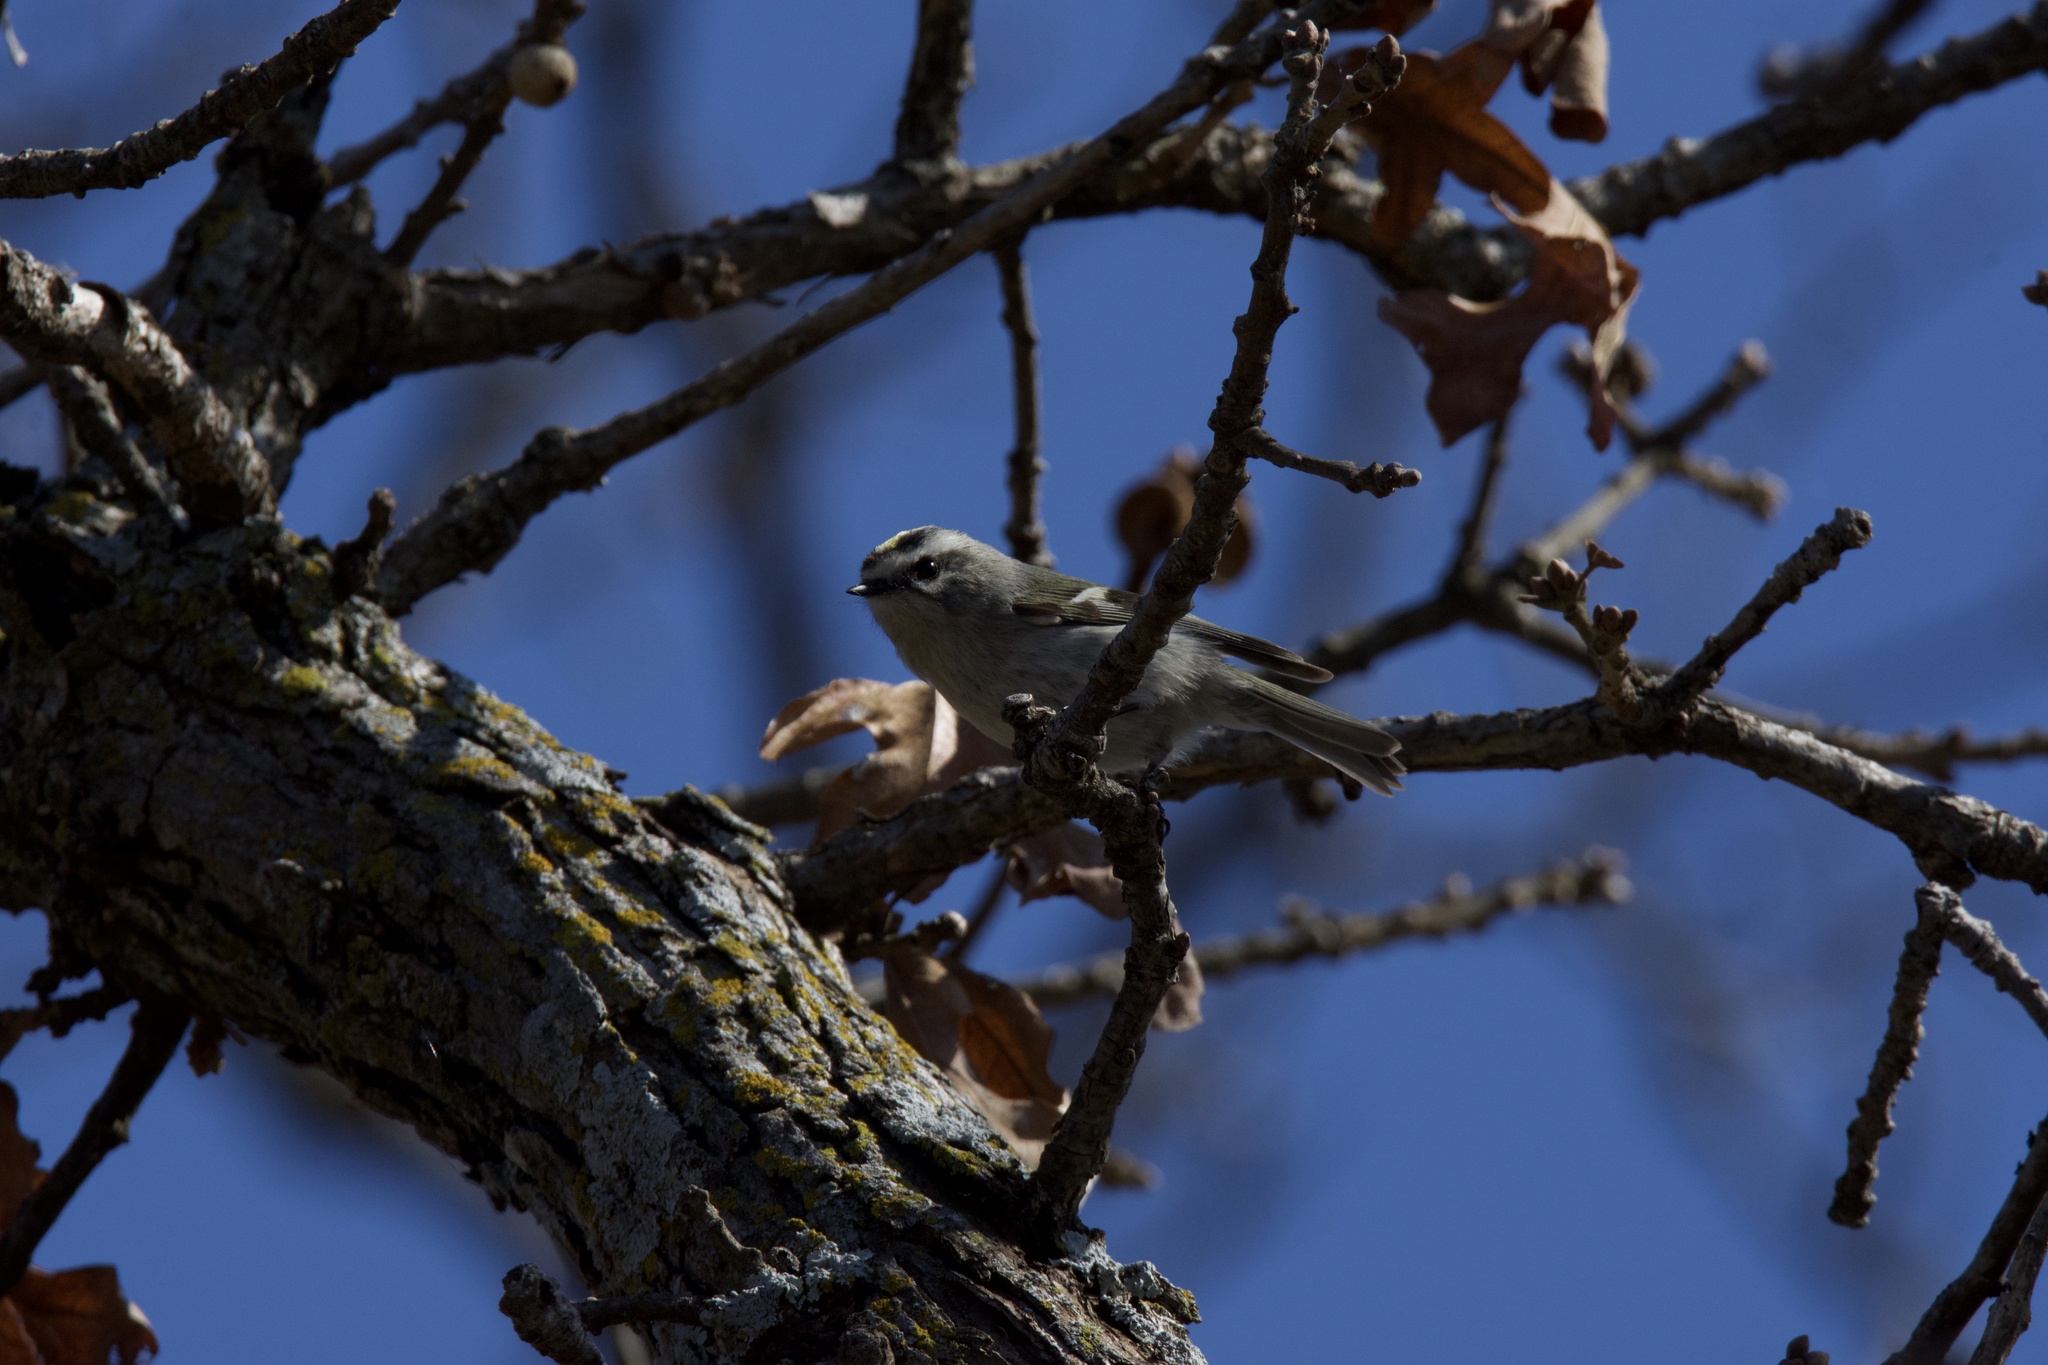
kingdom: Animalia
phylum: Chordata
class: Aves
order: Passeriformes
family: Regulidae
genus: Regulus
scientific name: Regulus satrapa
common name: Golden-crowned kinglet
